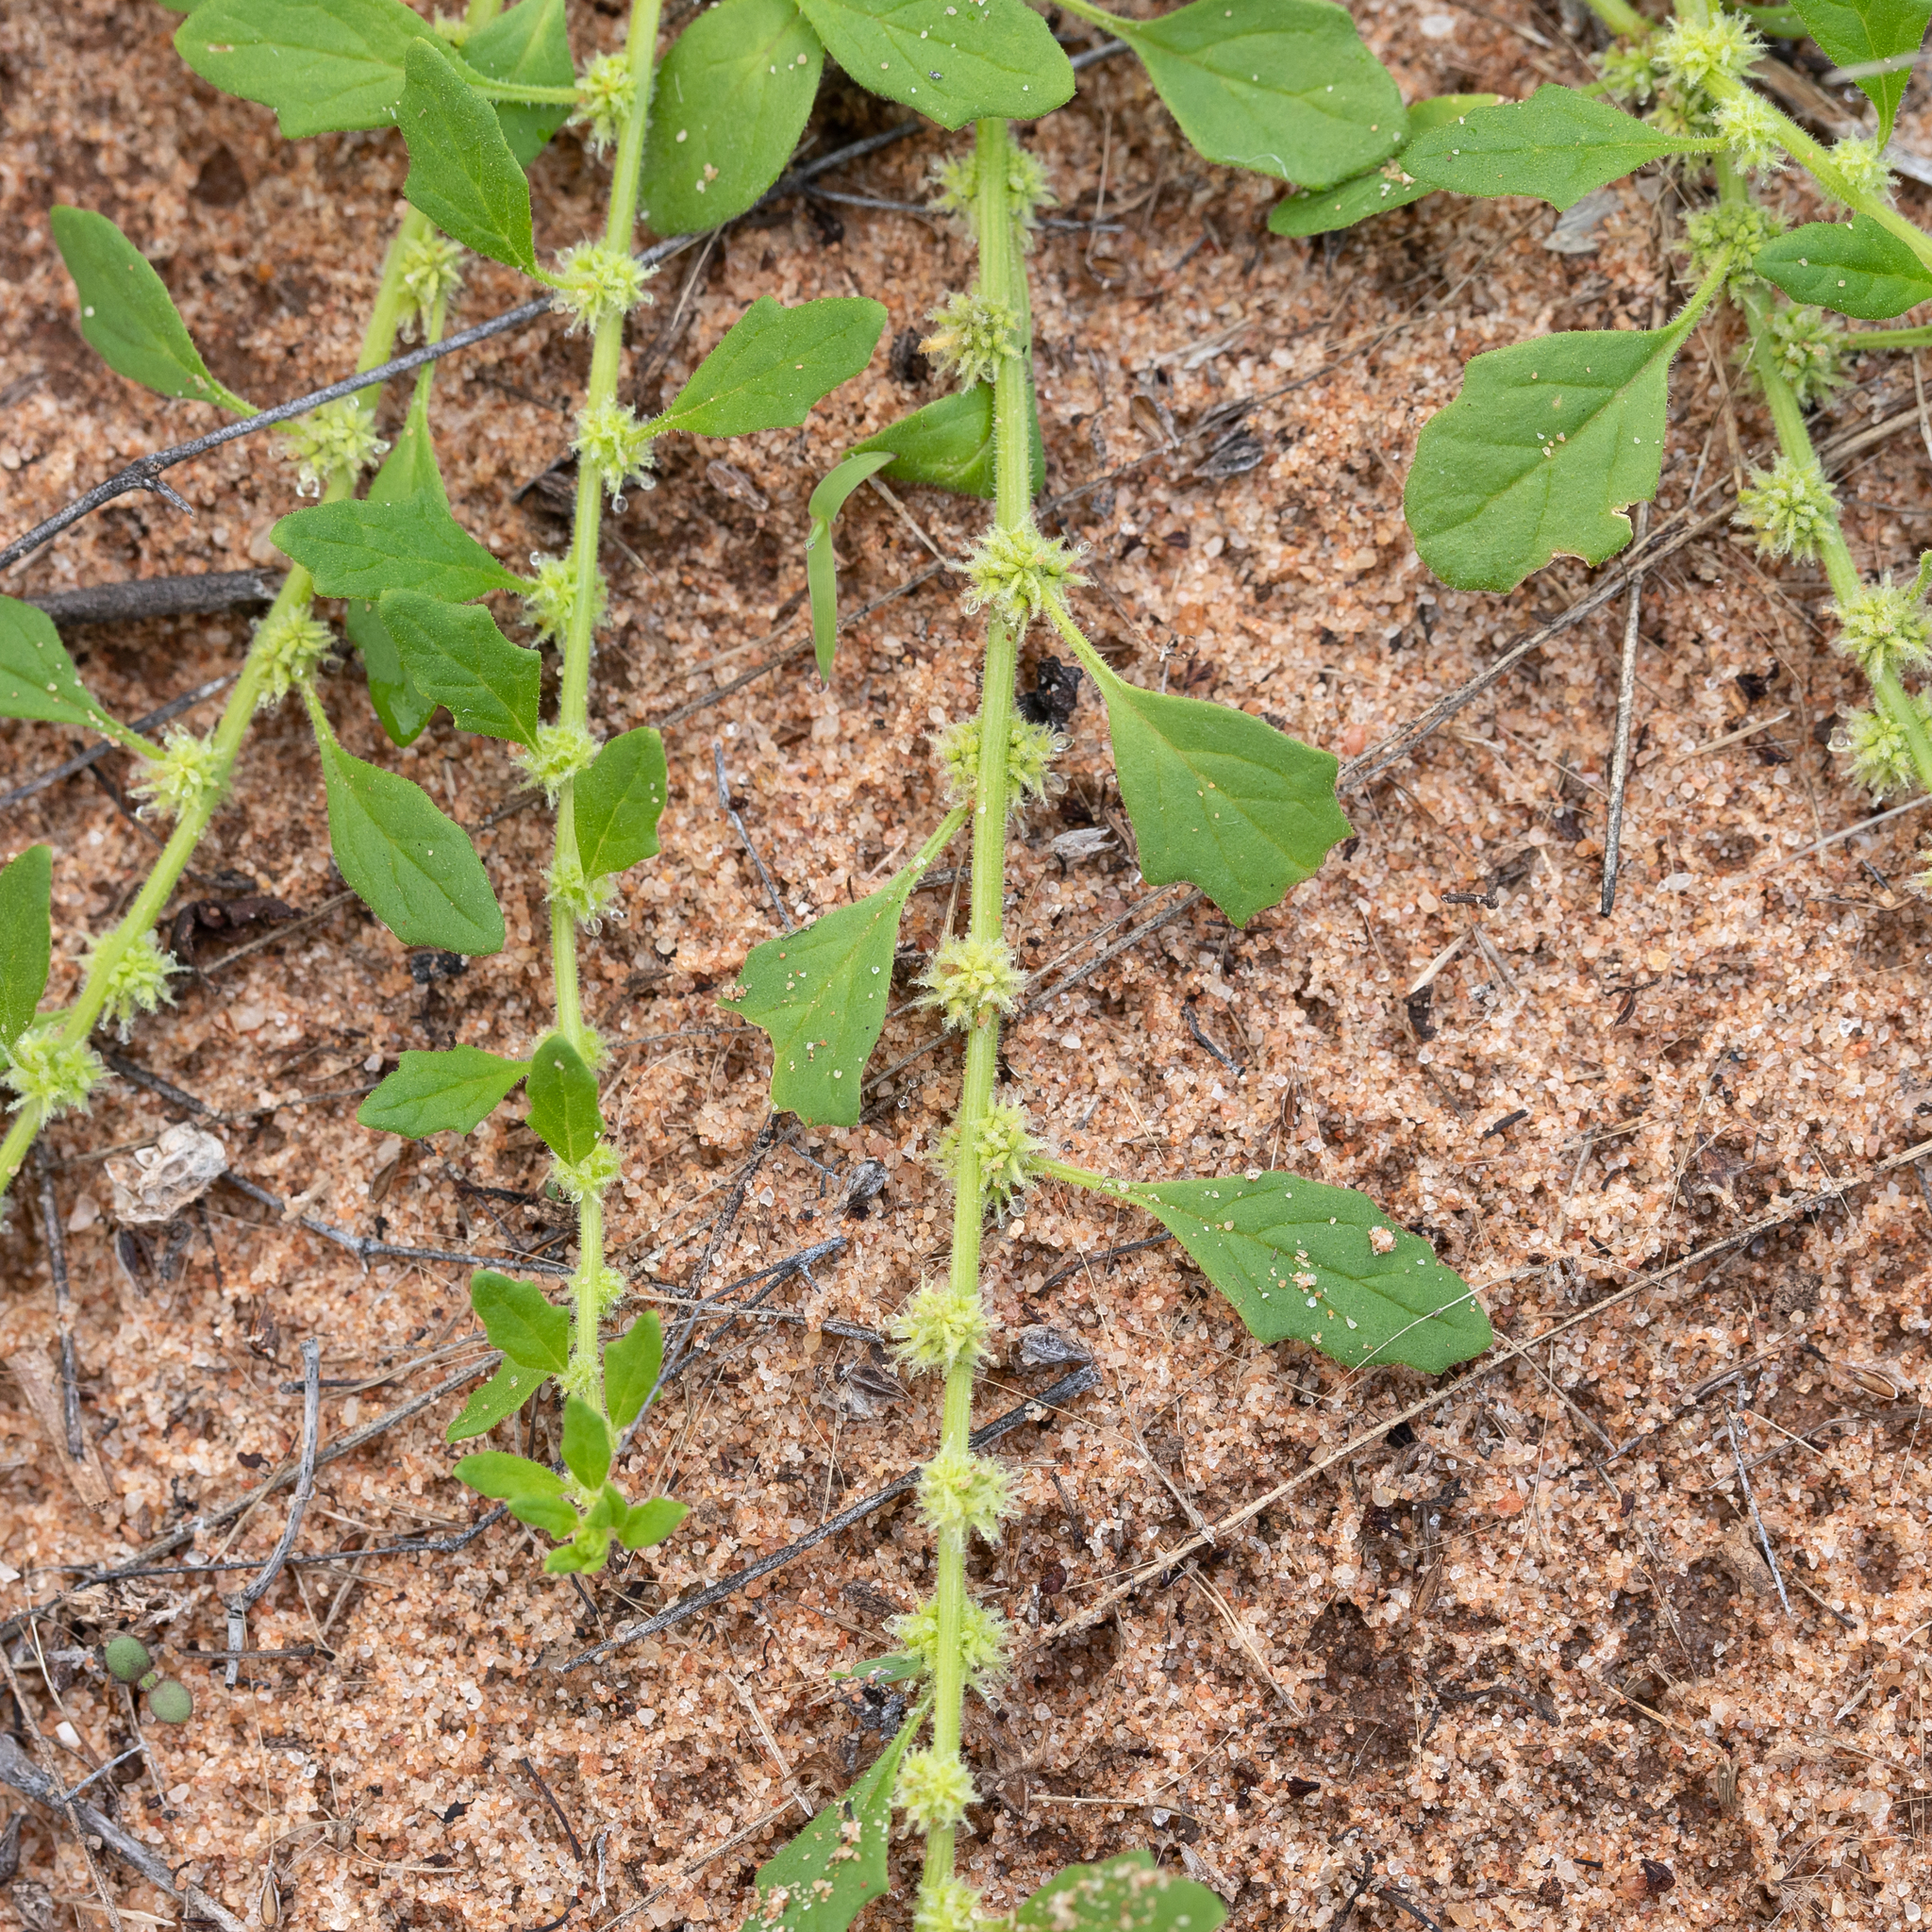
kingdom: Plantae
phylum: Tracheophyta
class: Magnoliopsida
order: Caryophyllales
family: Amaranthaceae
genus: Dysphania
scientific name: Dysphania cristata
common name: Crested goosefoot
